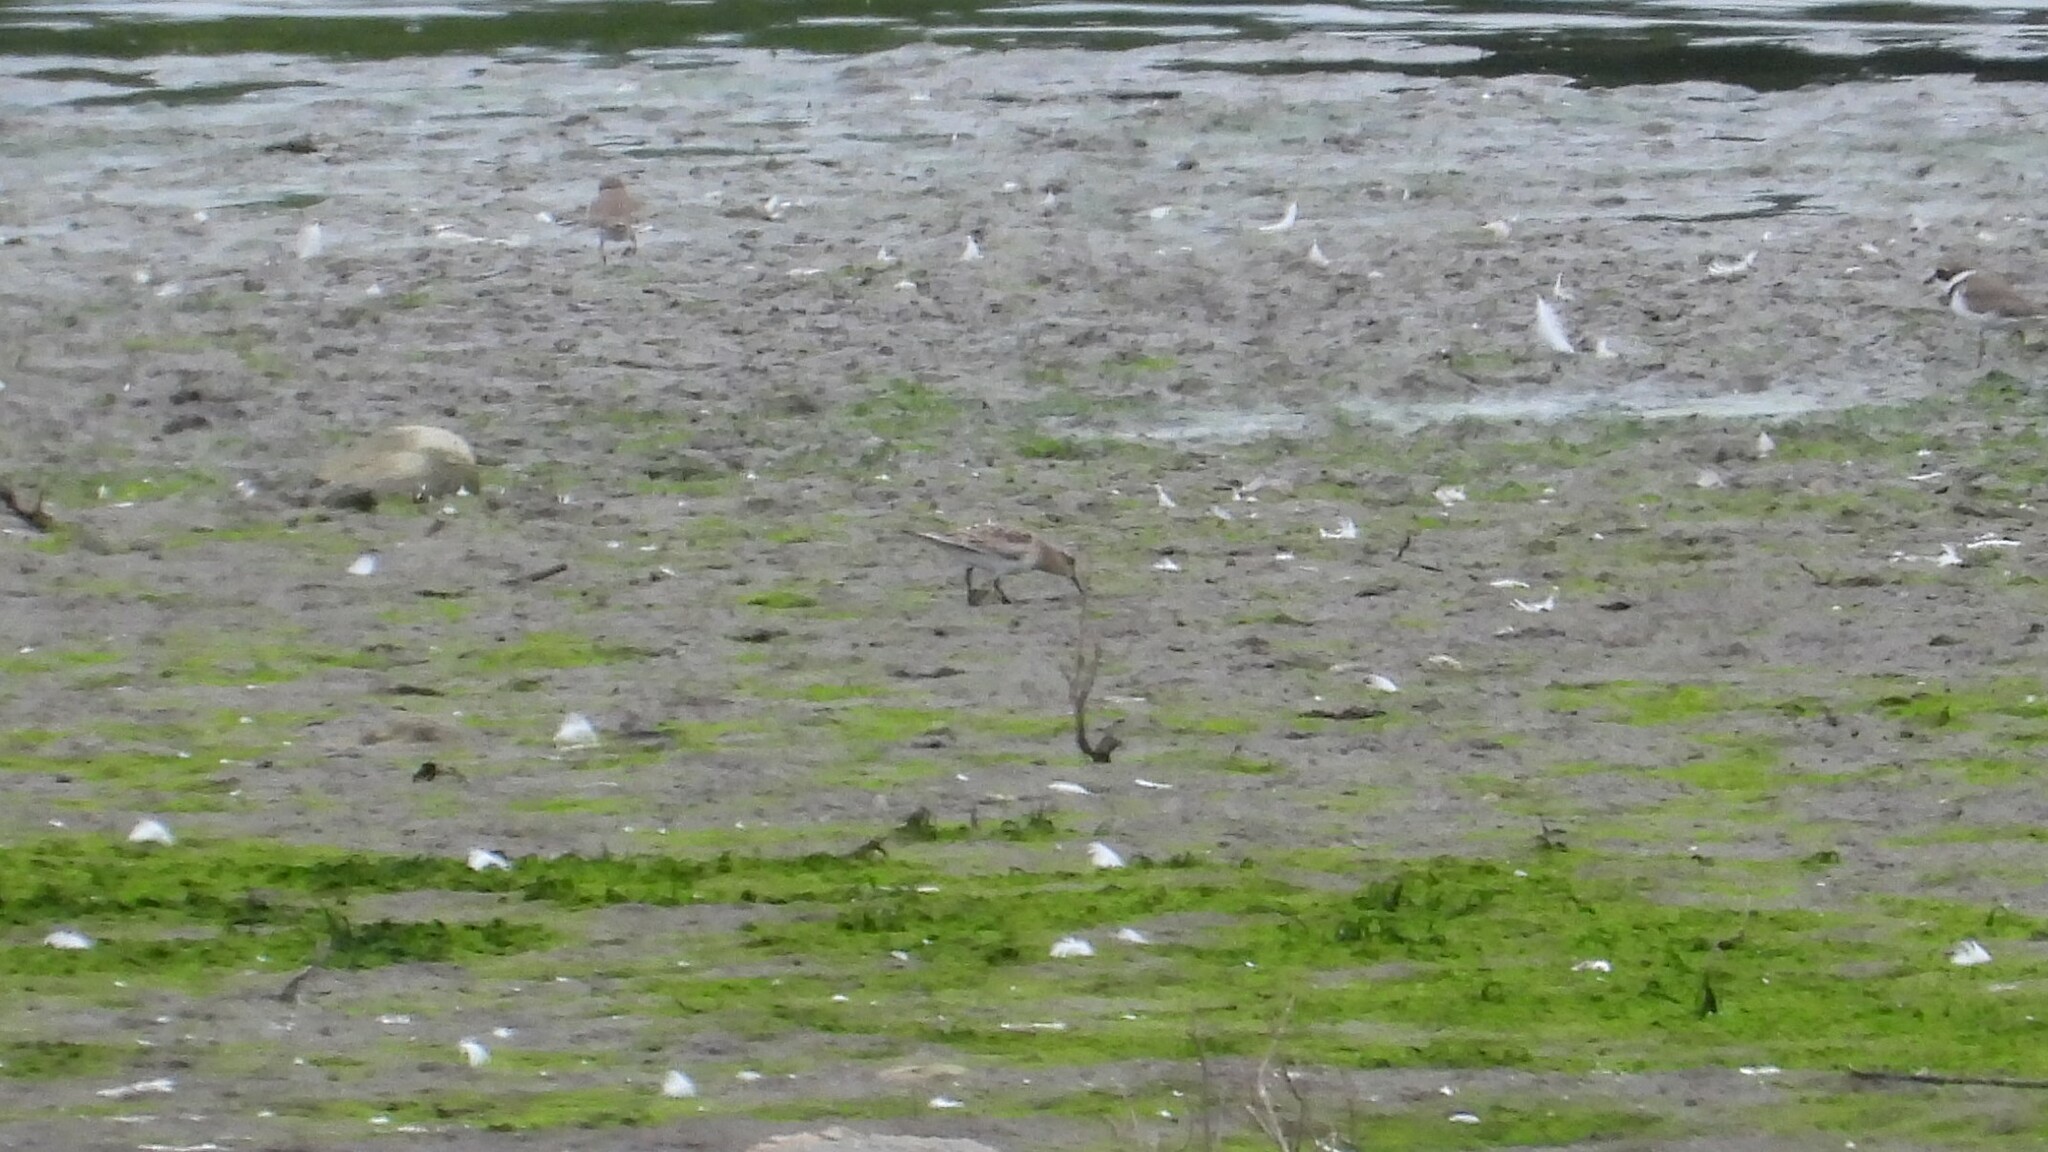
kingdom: Animalia
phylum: Chordata
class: Aves
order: Charadriiformes
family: Scolopacidae
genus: Calidris
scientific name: Calidris bairdii
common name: Baird's sandpiper
